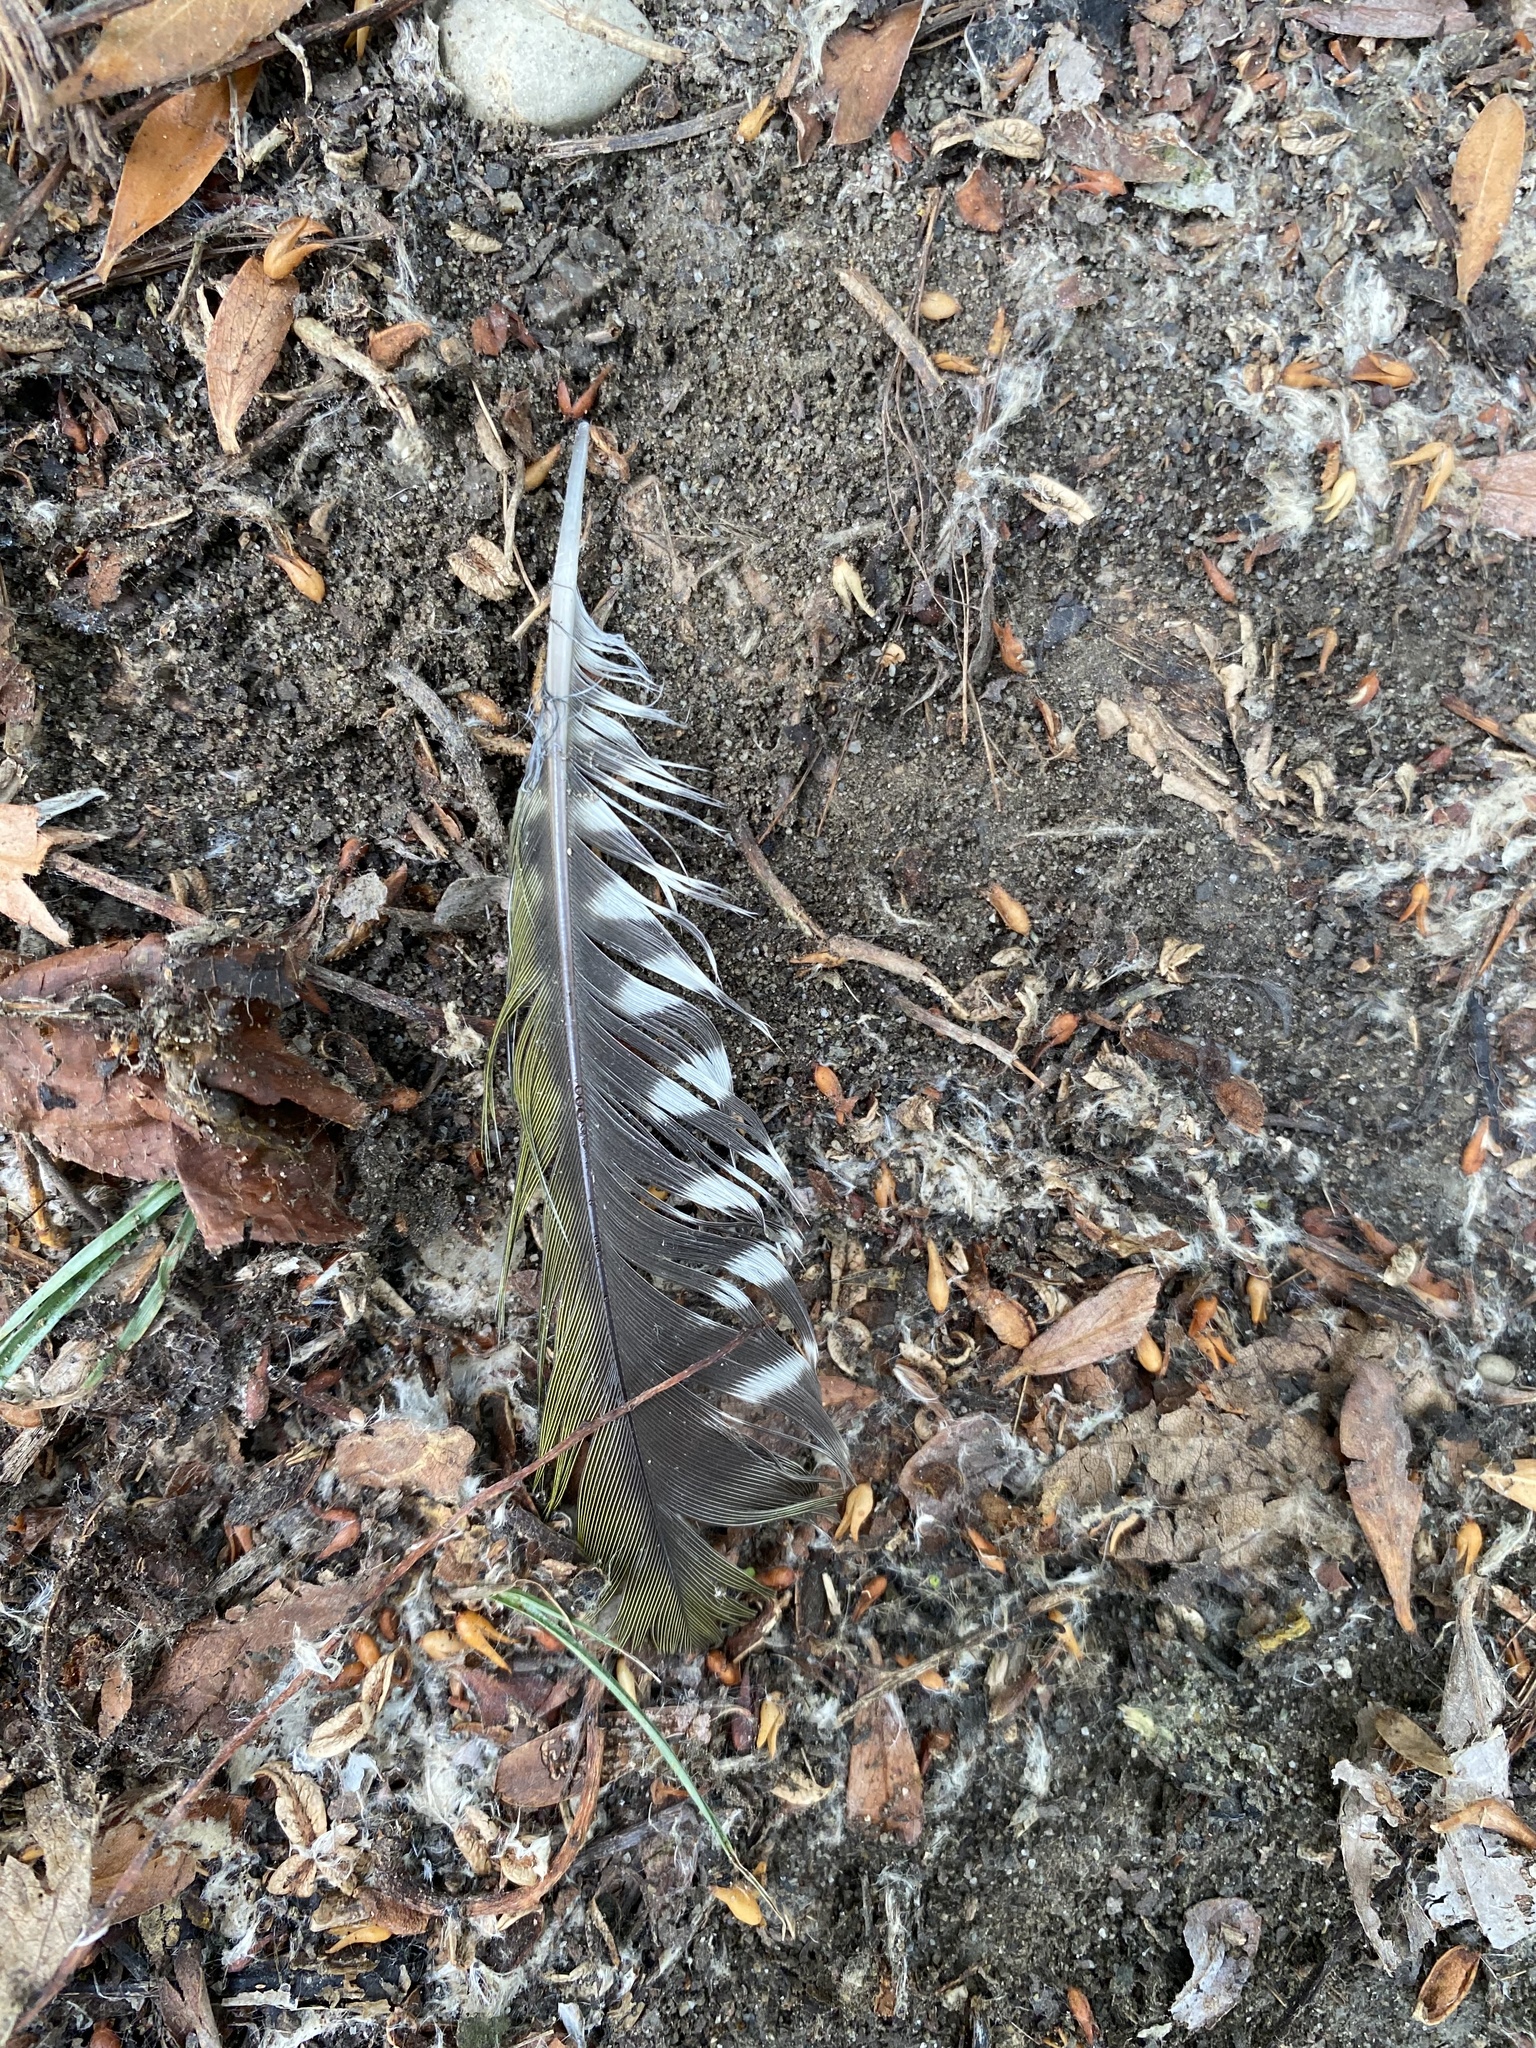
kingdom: Animalia
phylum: Chordata
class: Aves
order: Piciformes
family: Picidae
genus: Picus
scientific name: Picus viridis
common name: European green woodpecker
